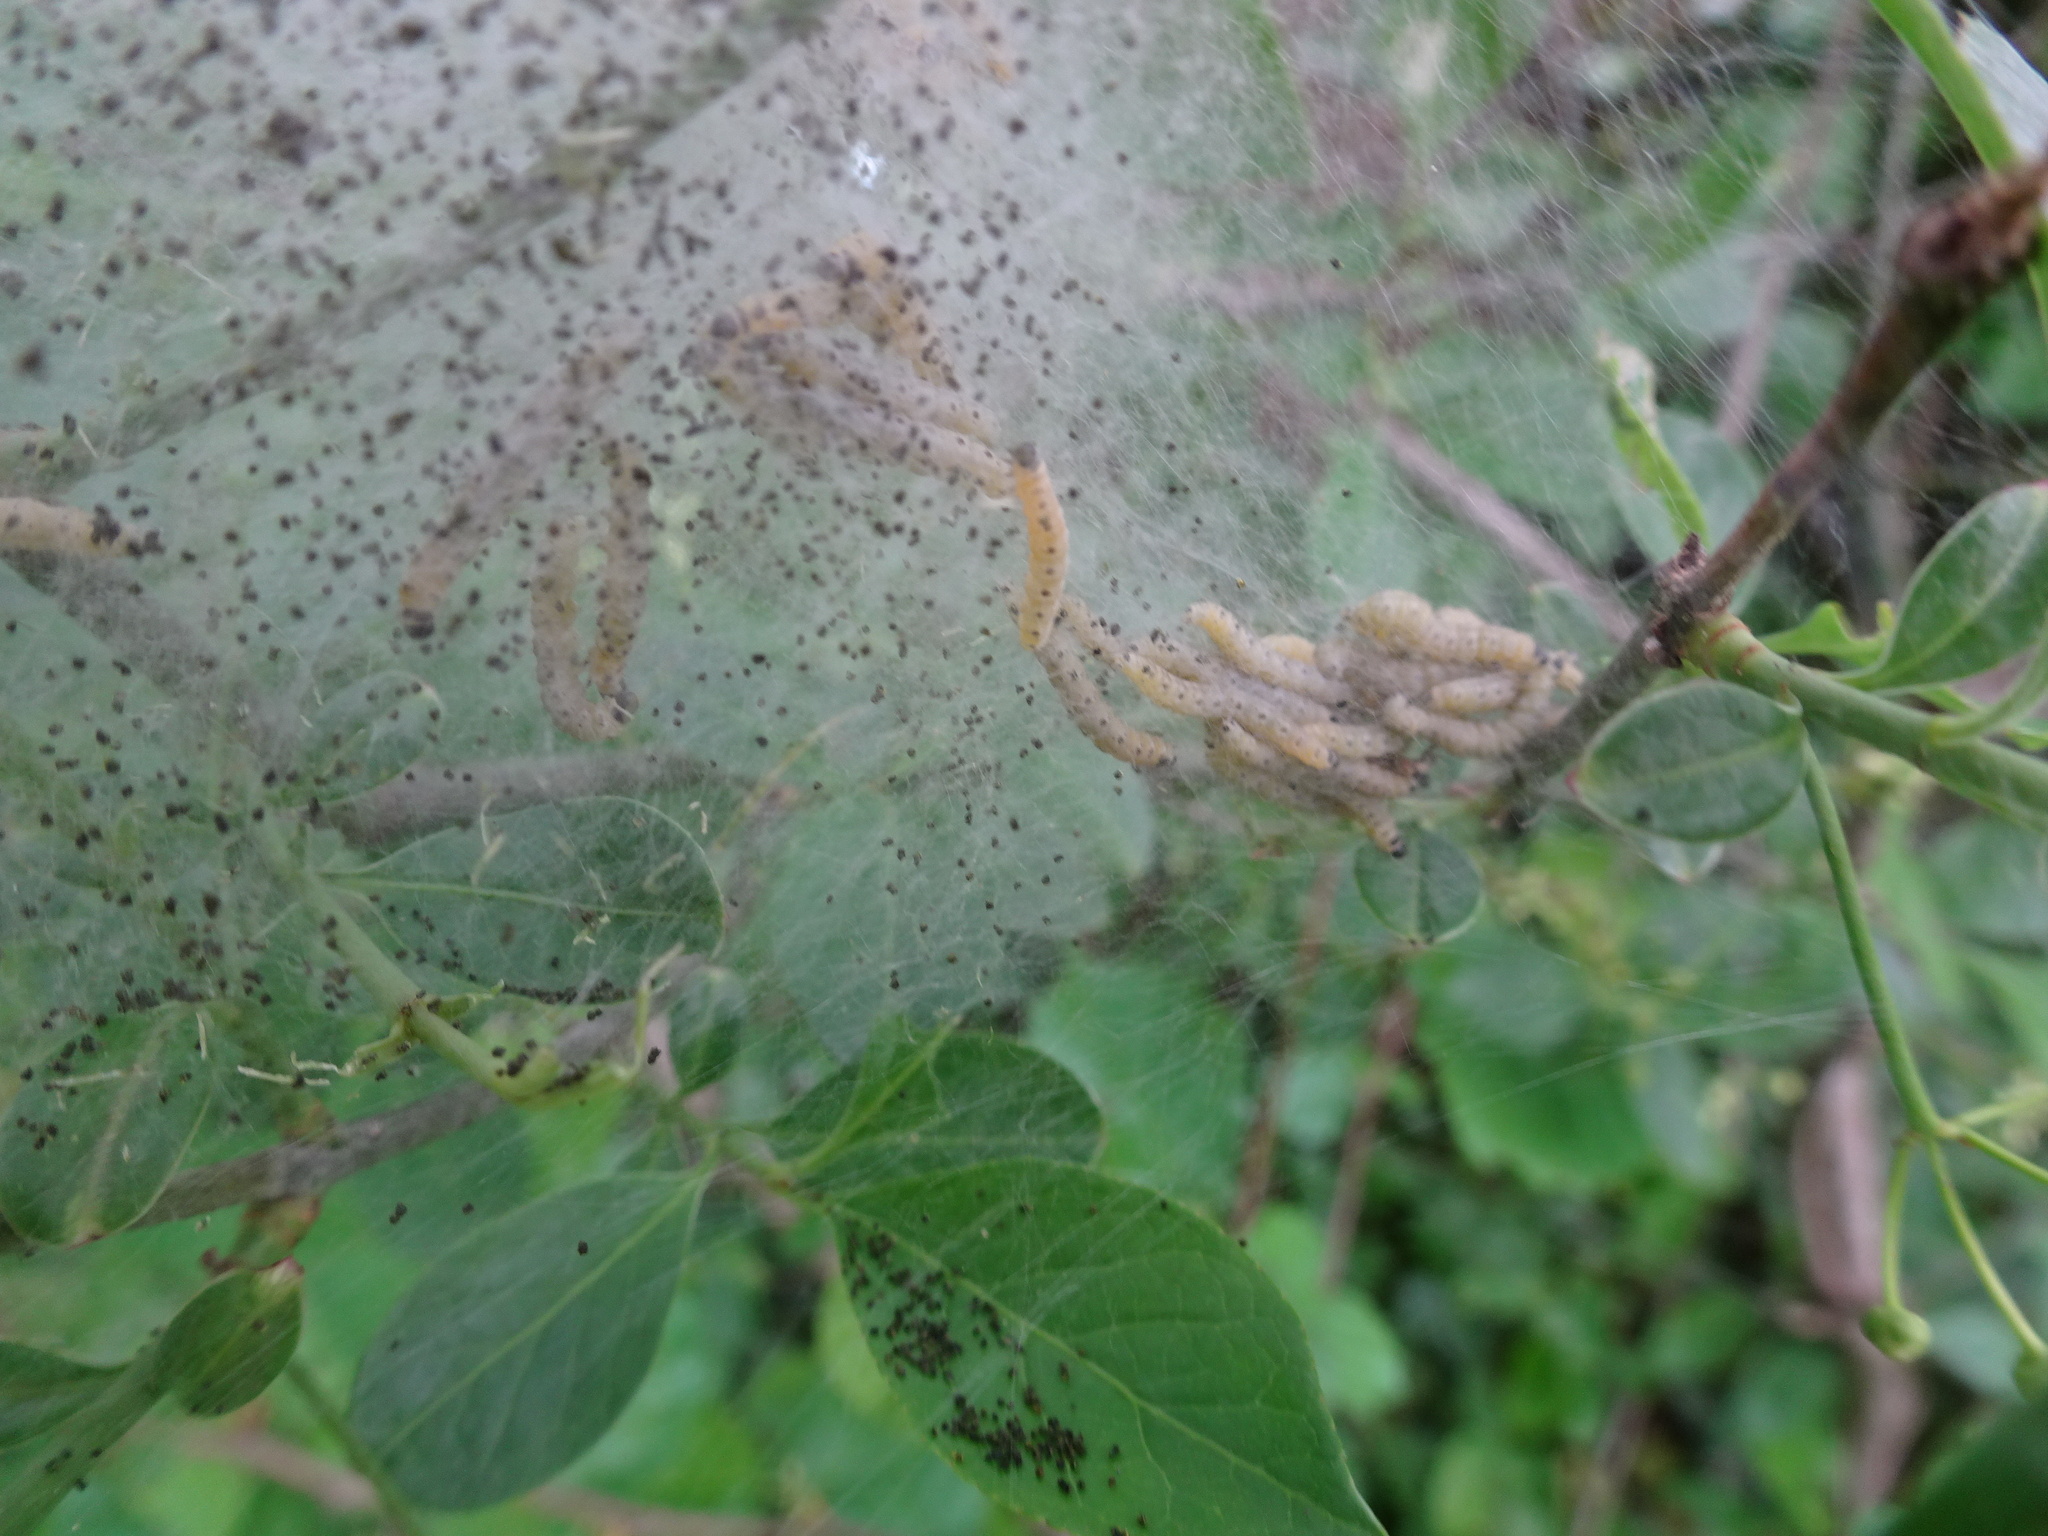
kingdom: Animalia
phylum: Arthropoda
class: Insecta
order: Lepidoptera
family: Yponomeutidae
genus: Yponomeuta
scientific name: Yponomeuta cagnagellus
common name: Spindle ermine
